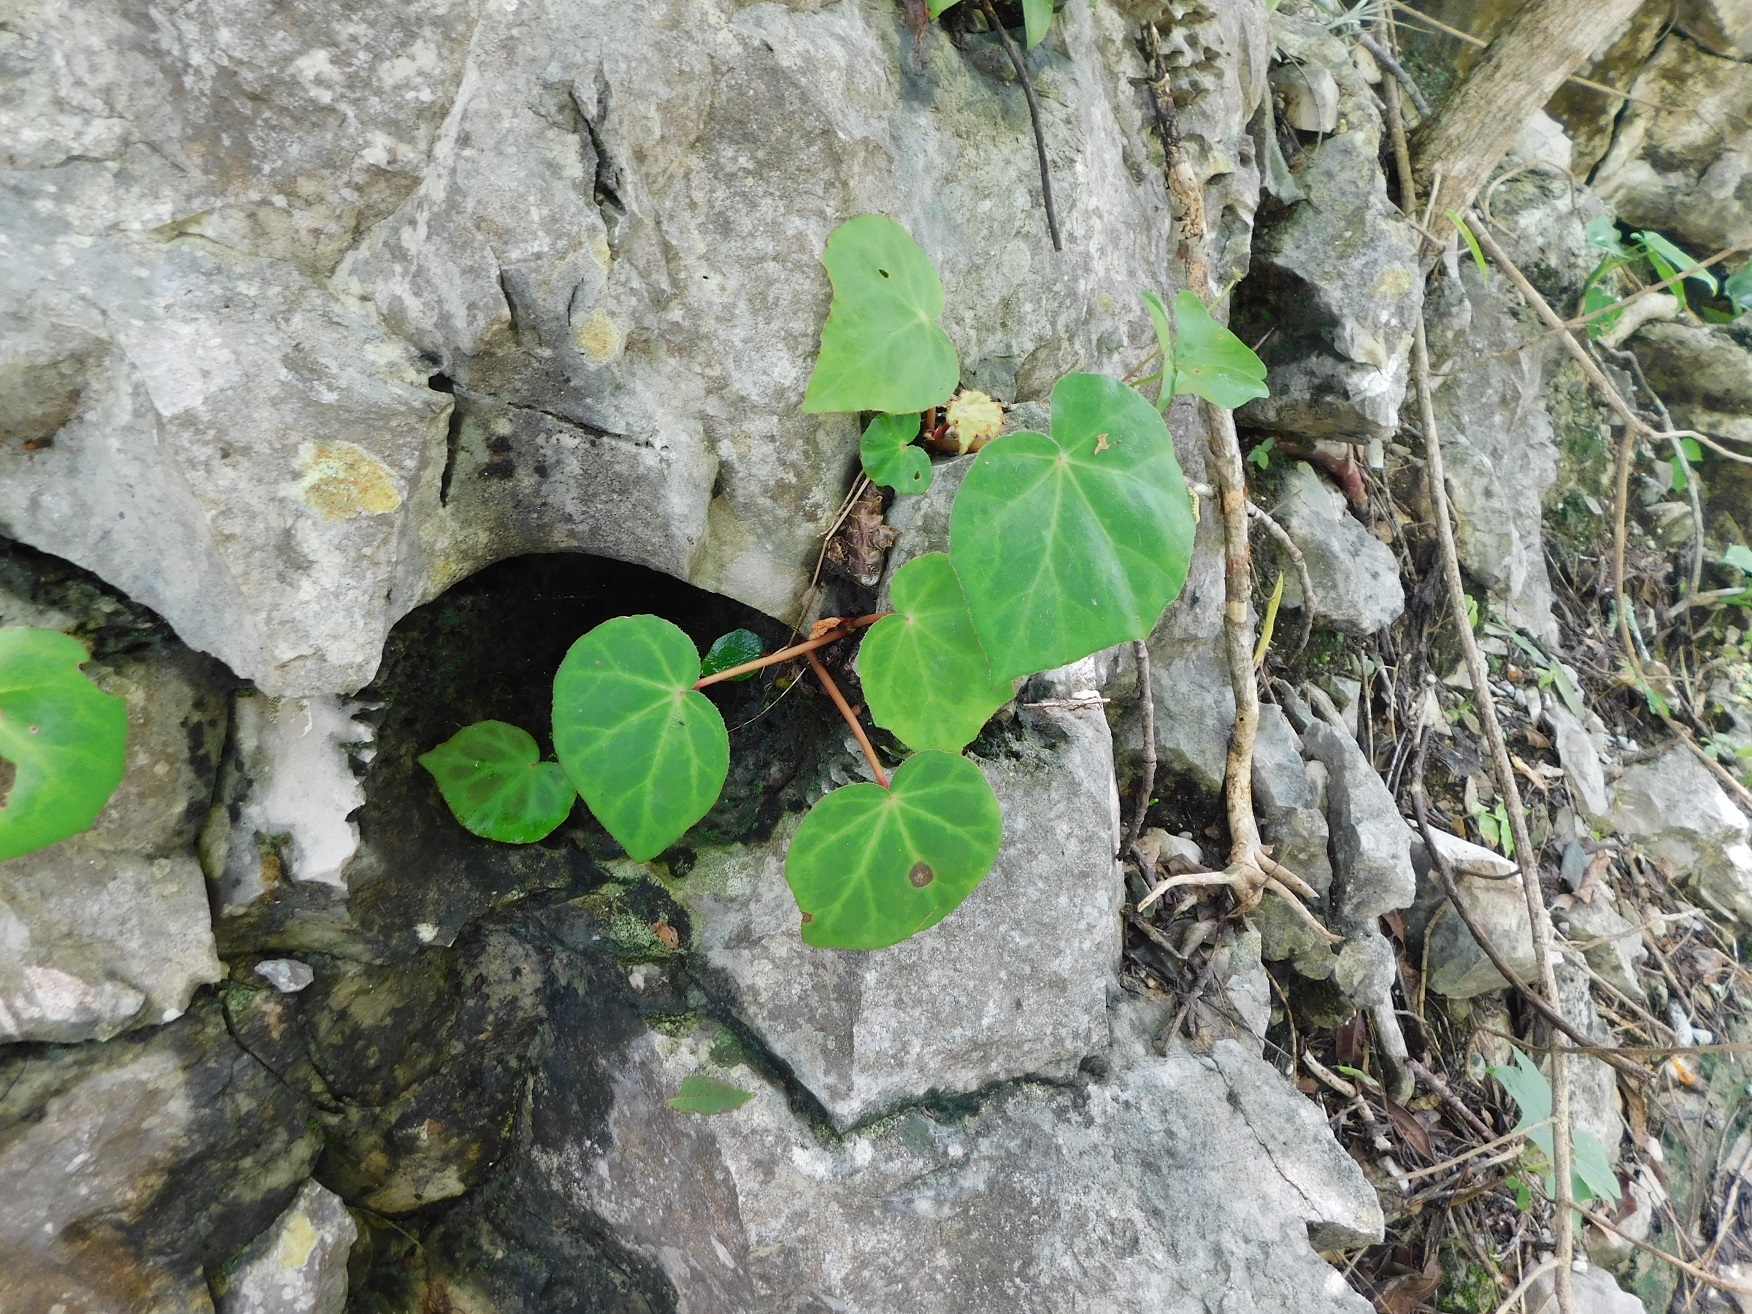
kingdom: Plantae
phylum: Tracheophyta
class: Magnoliopsida
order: Cucurbitales
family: Begoniaceae
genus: Begonia
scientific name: Begonia pinetorum
